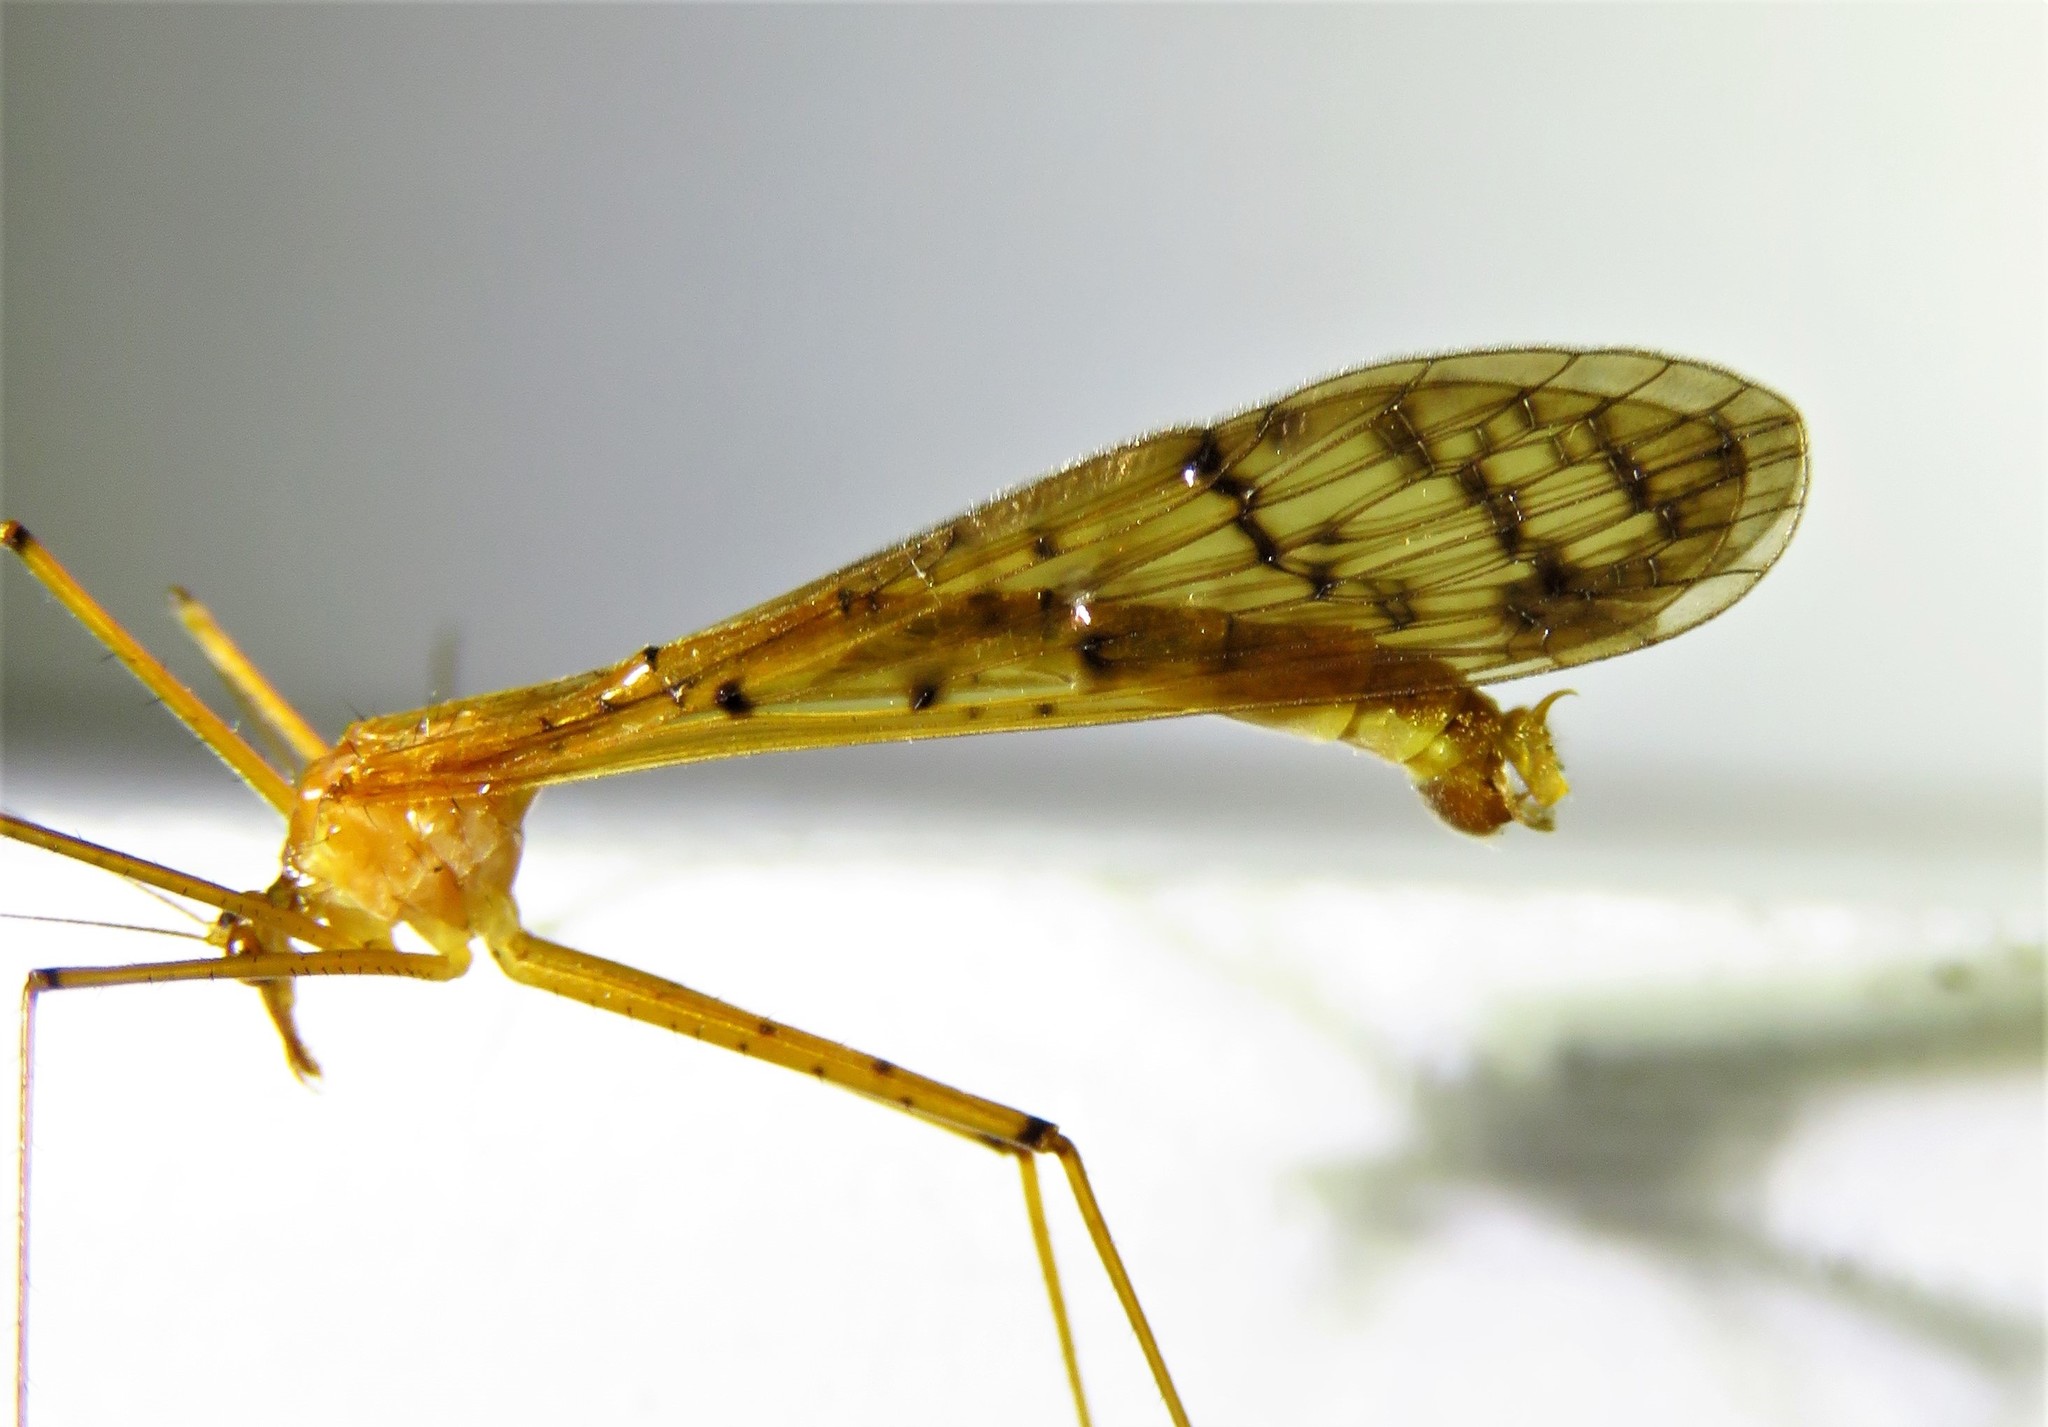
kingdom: Animalia
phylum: Arthropoda
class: Insecta
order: Mecoptera
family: Bittacidae
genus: Bittacus
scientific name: Bittacus punctiger
